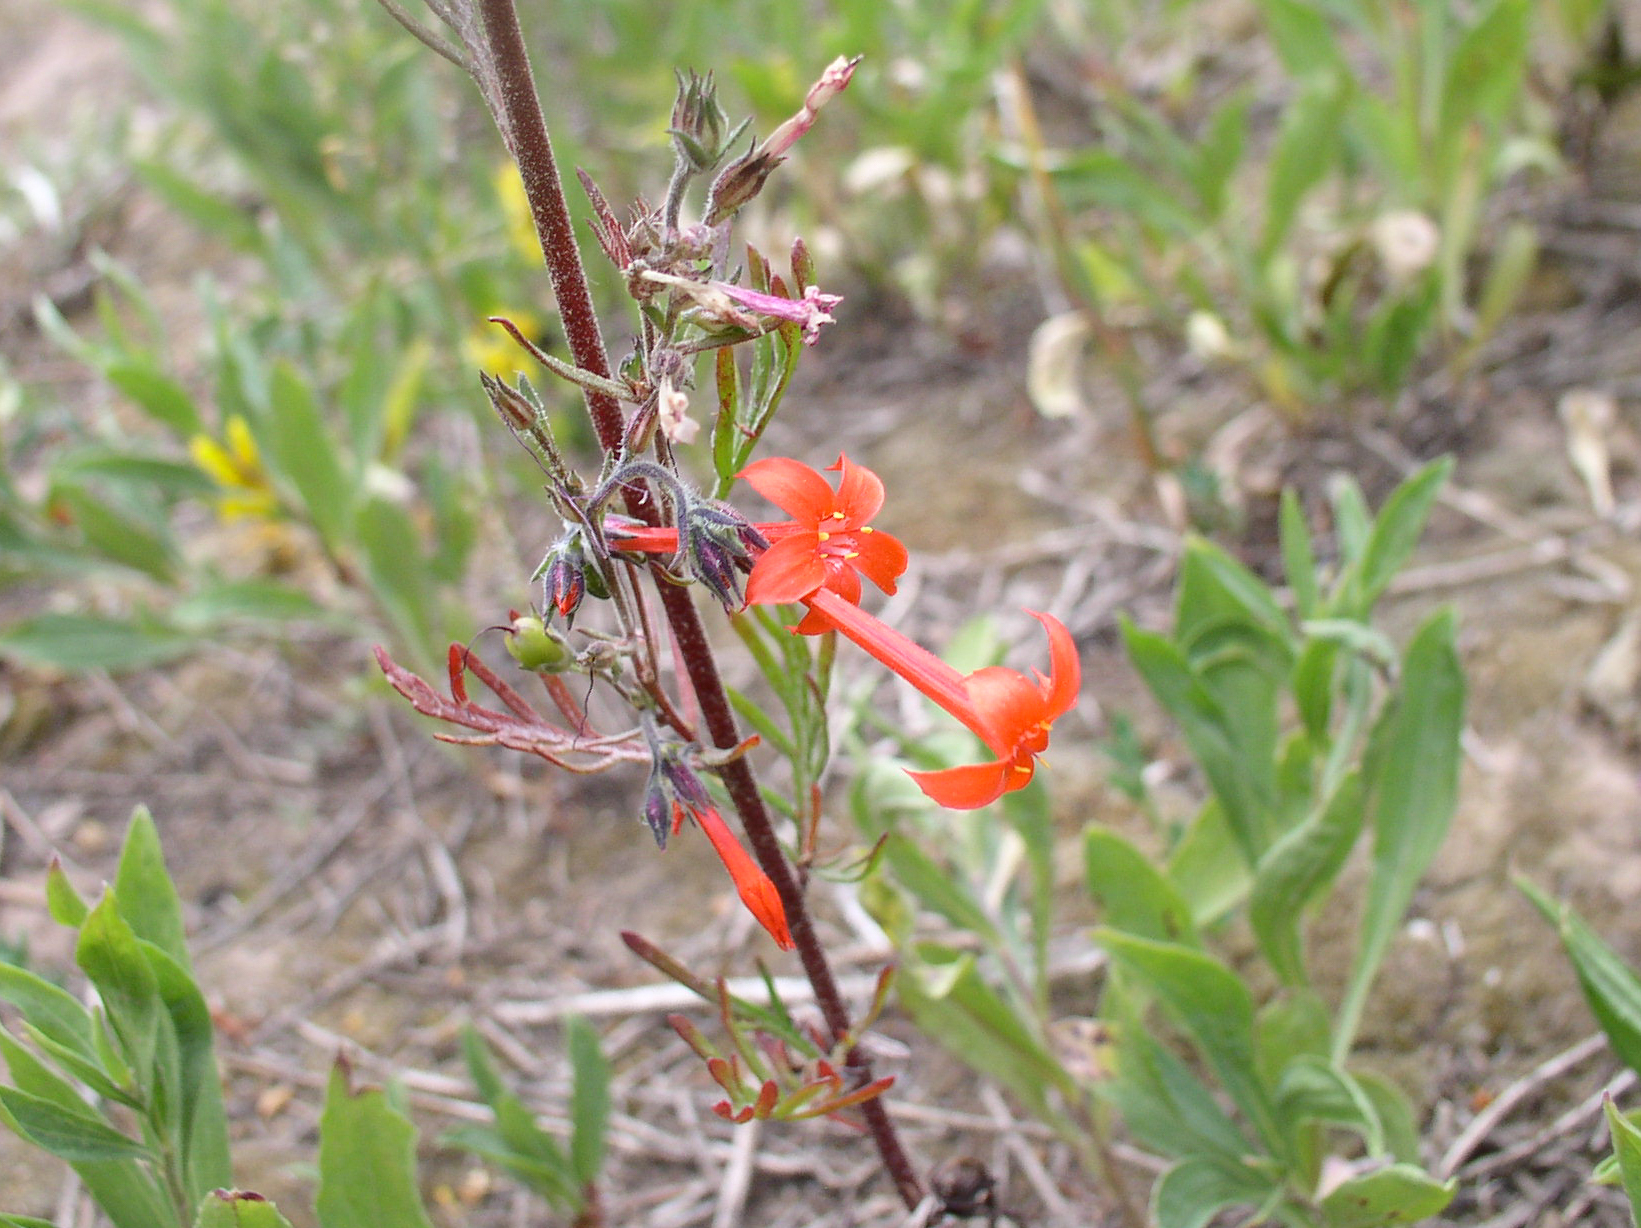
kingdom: Plantae
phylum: Tracheophyta
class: Magnoliopsida
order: Ericales
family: Polemoniaceae
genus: Ipomopsis
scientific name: Ipomopsis aggregata
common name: Scarlet gilia
